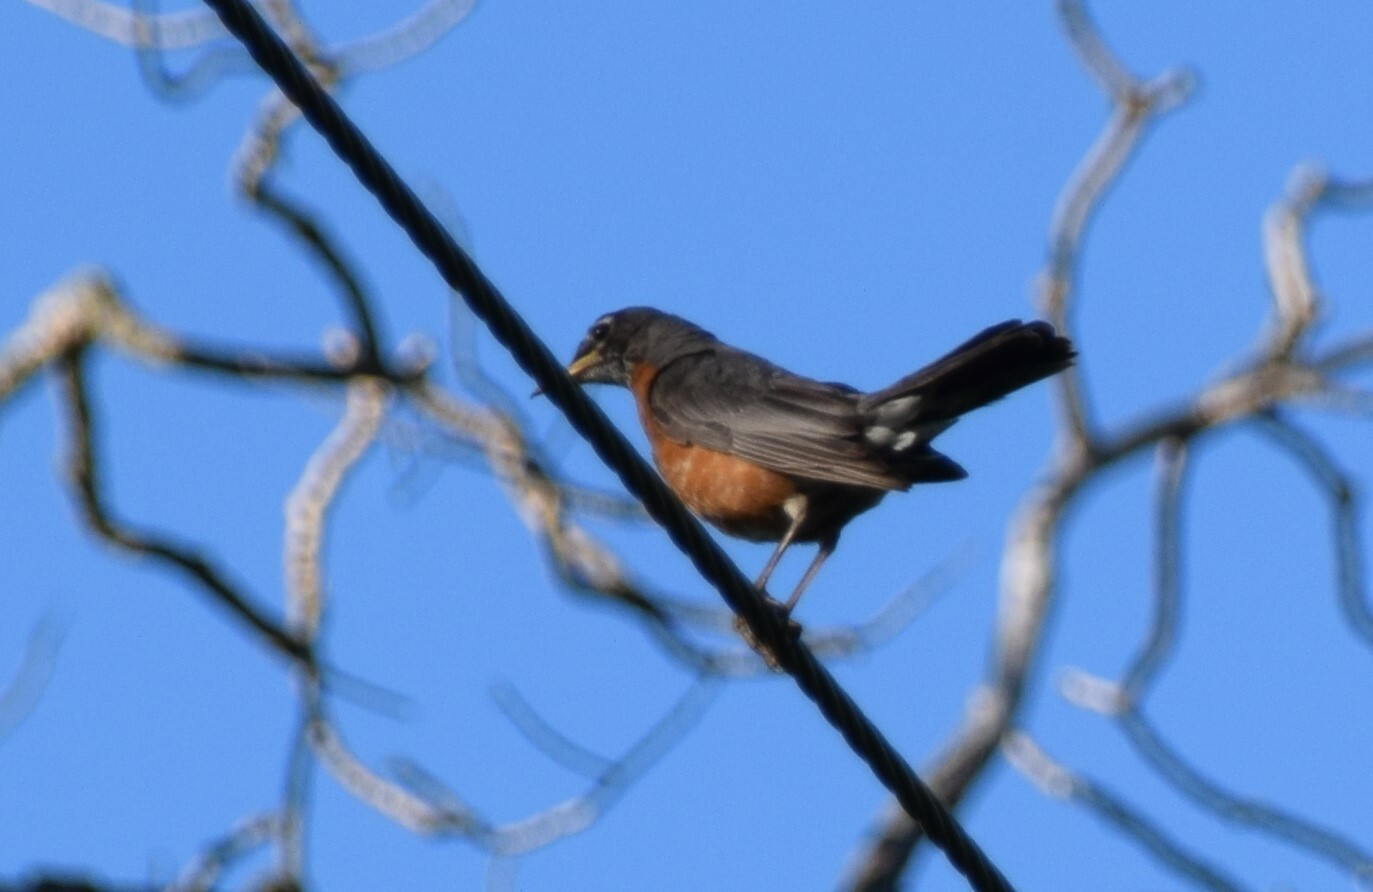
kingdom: Animalia
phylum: Chordata
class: Aves
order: Passeriformes
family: Turdidae
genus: Turdus
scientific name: Turdus migratorius
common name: American robin
